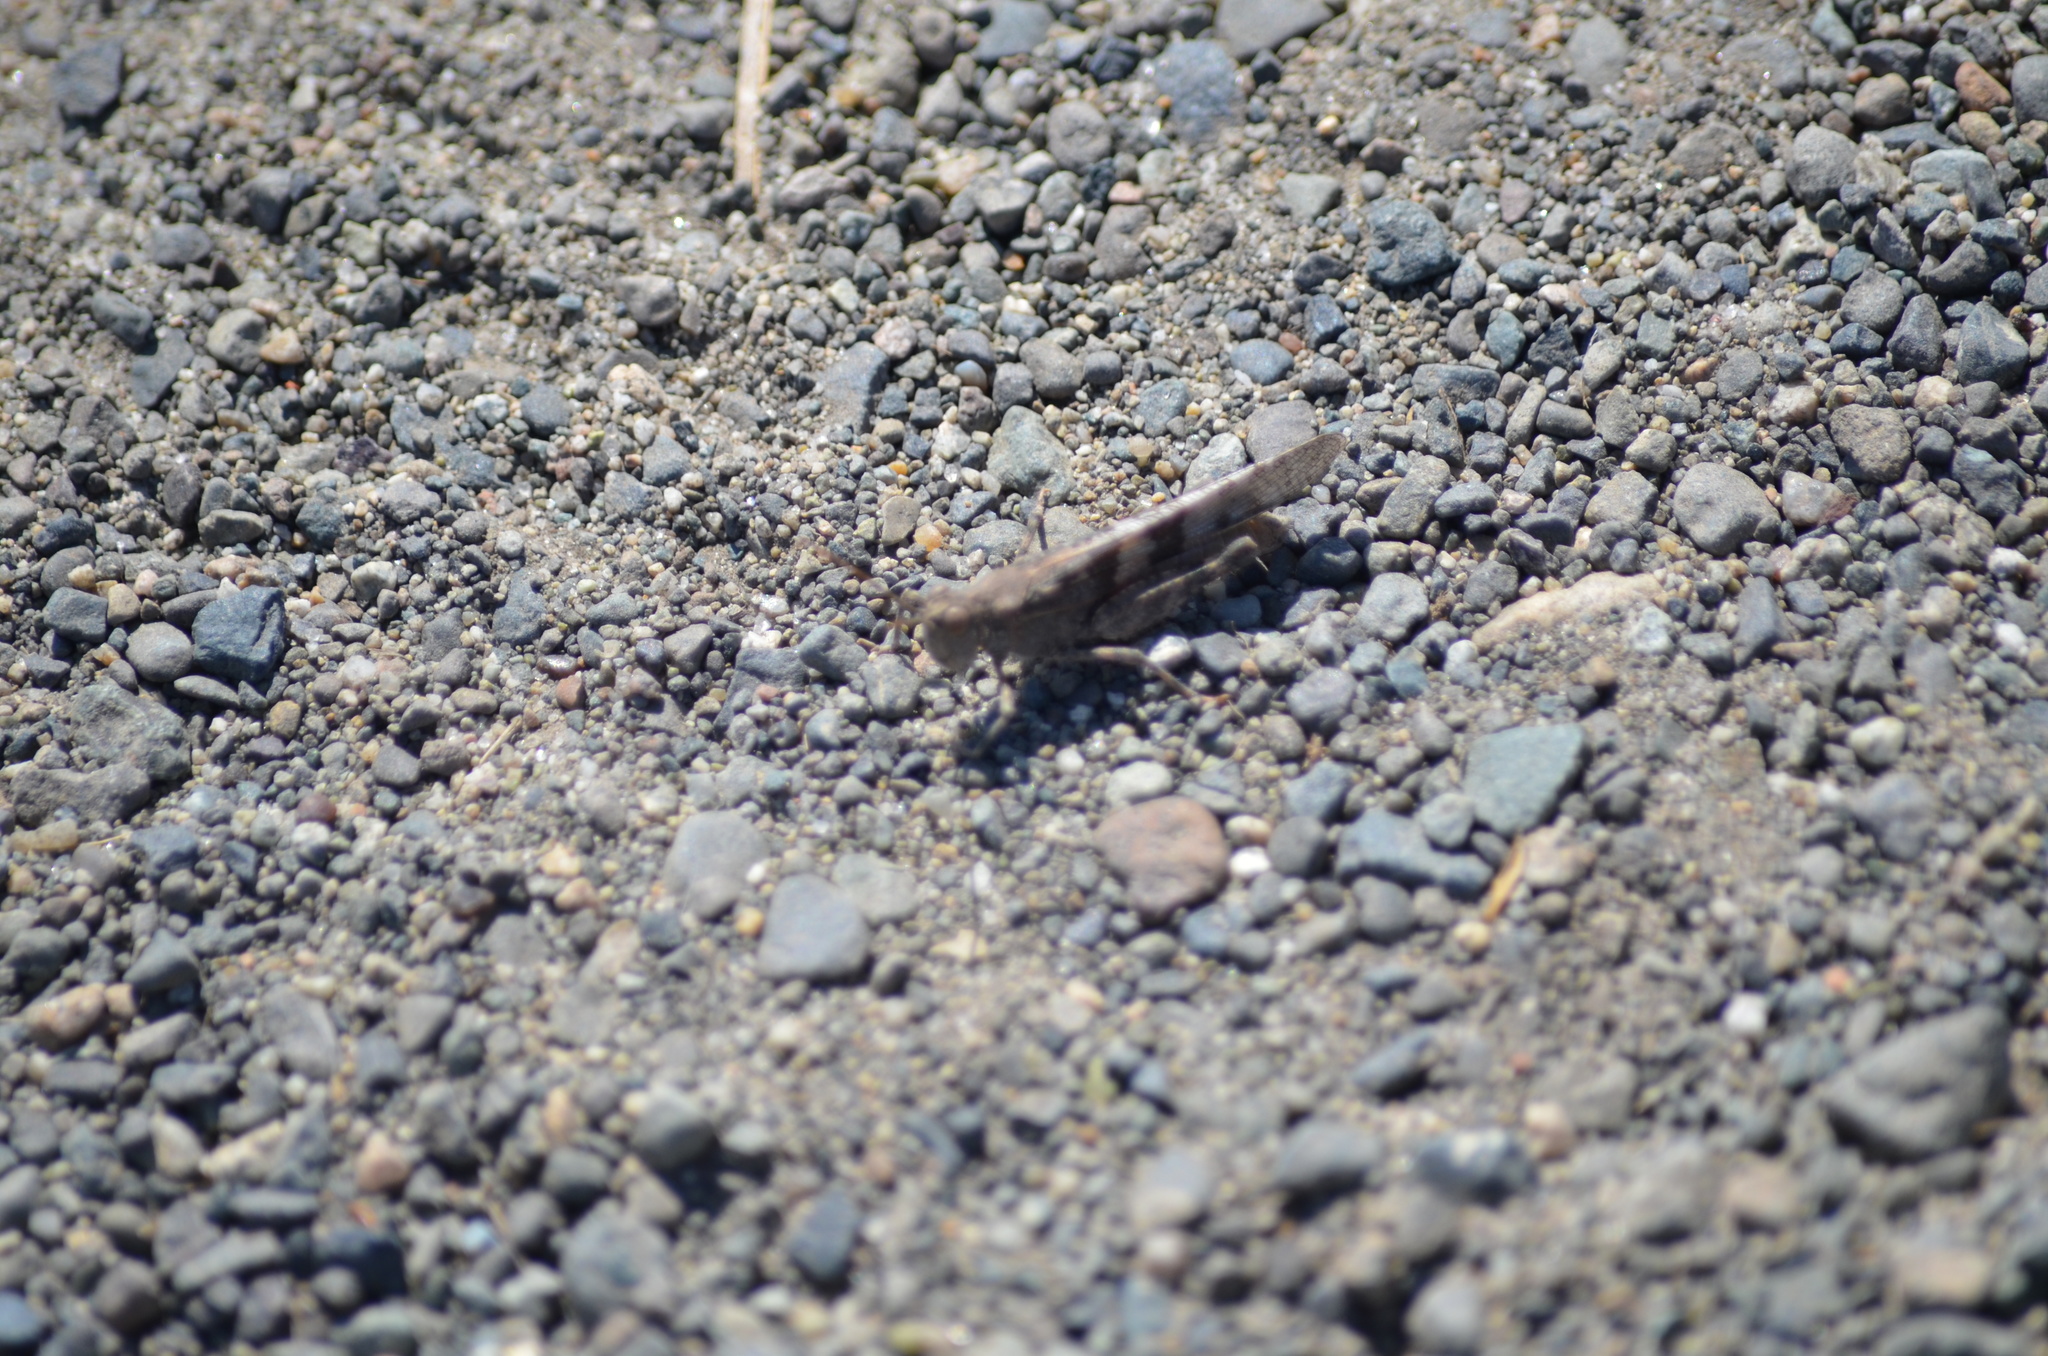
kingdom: Animalia
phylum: Arthropoda
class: Insecta
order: Orthoptera
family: Acrididae
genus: Trimerotropis
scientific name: Trimerotropis pallidipennis
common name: Pallid-winged grasshopper
